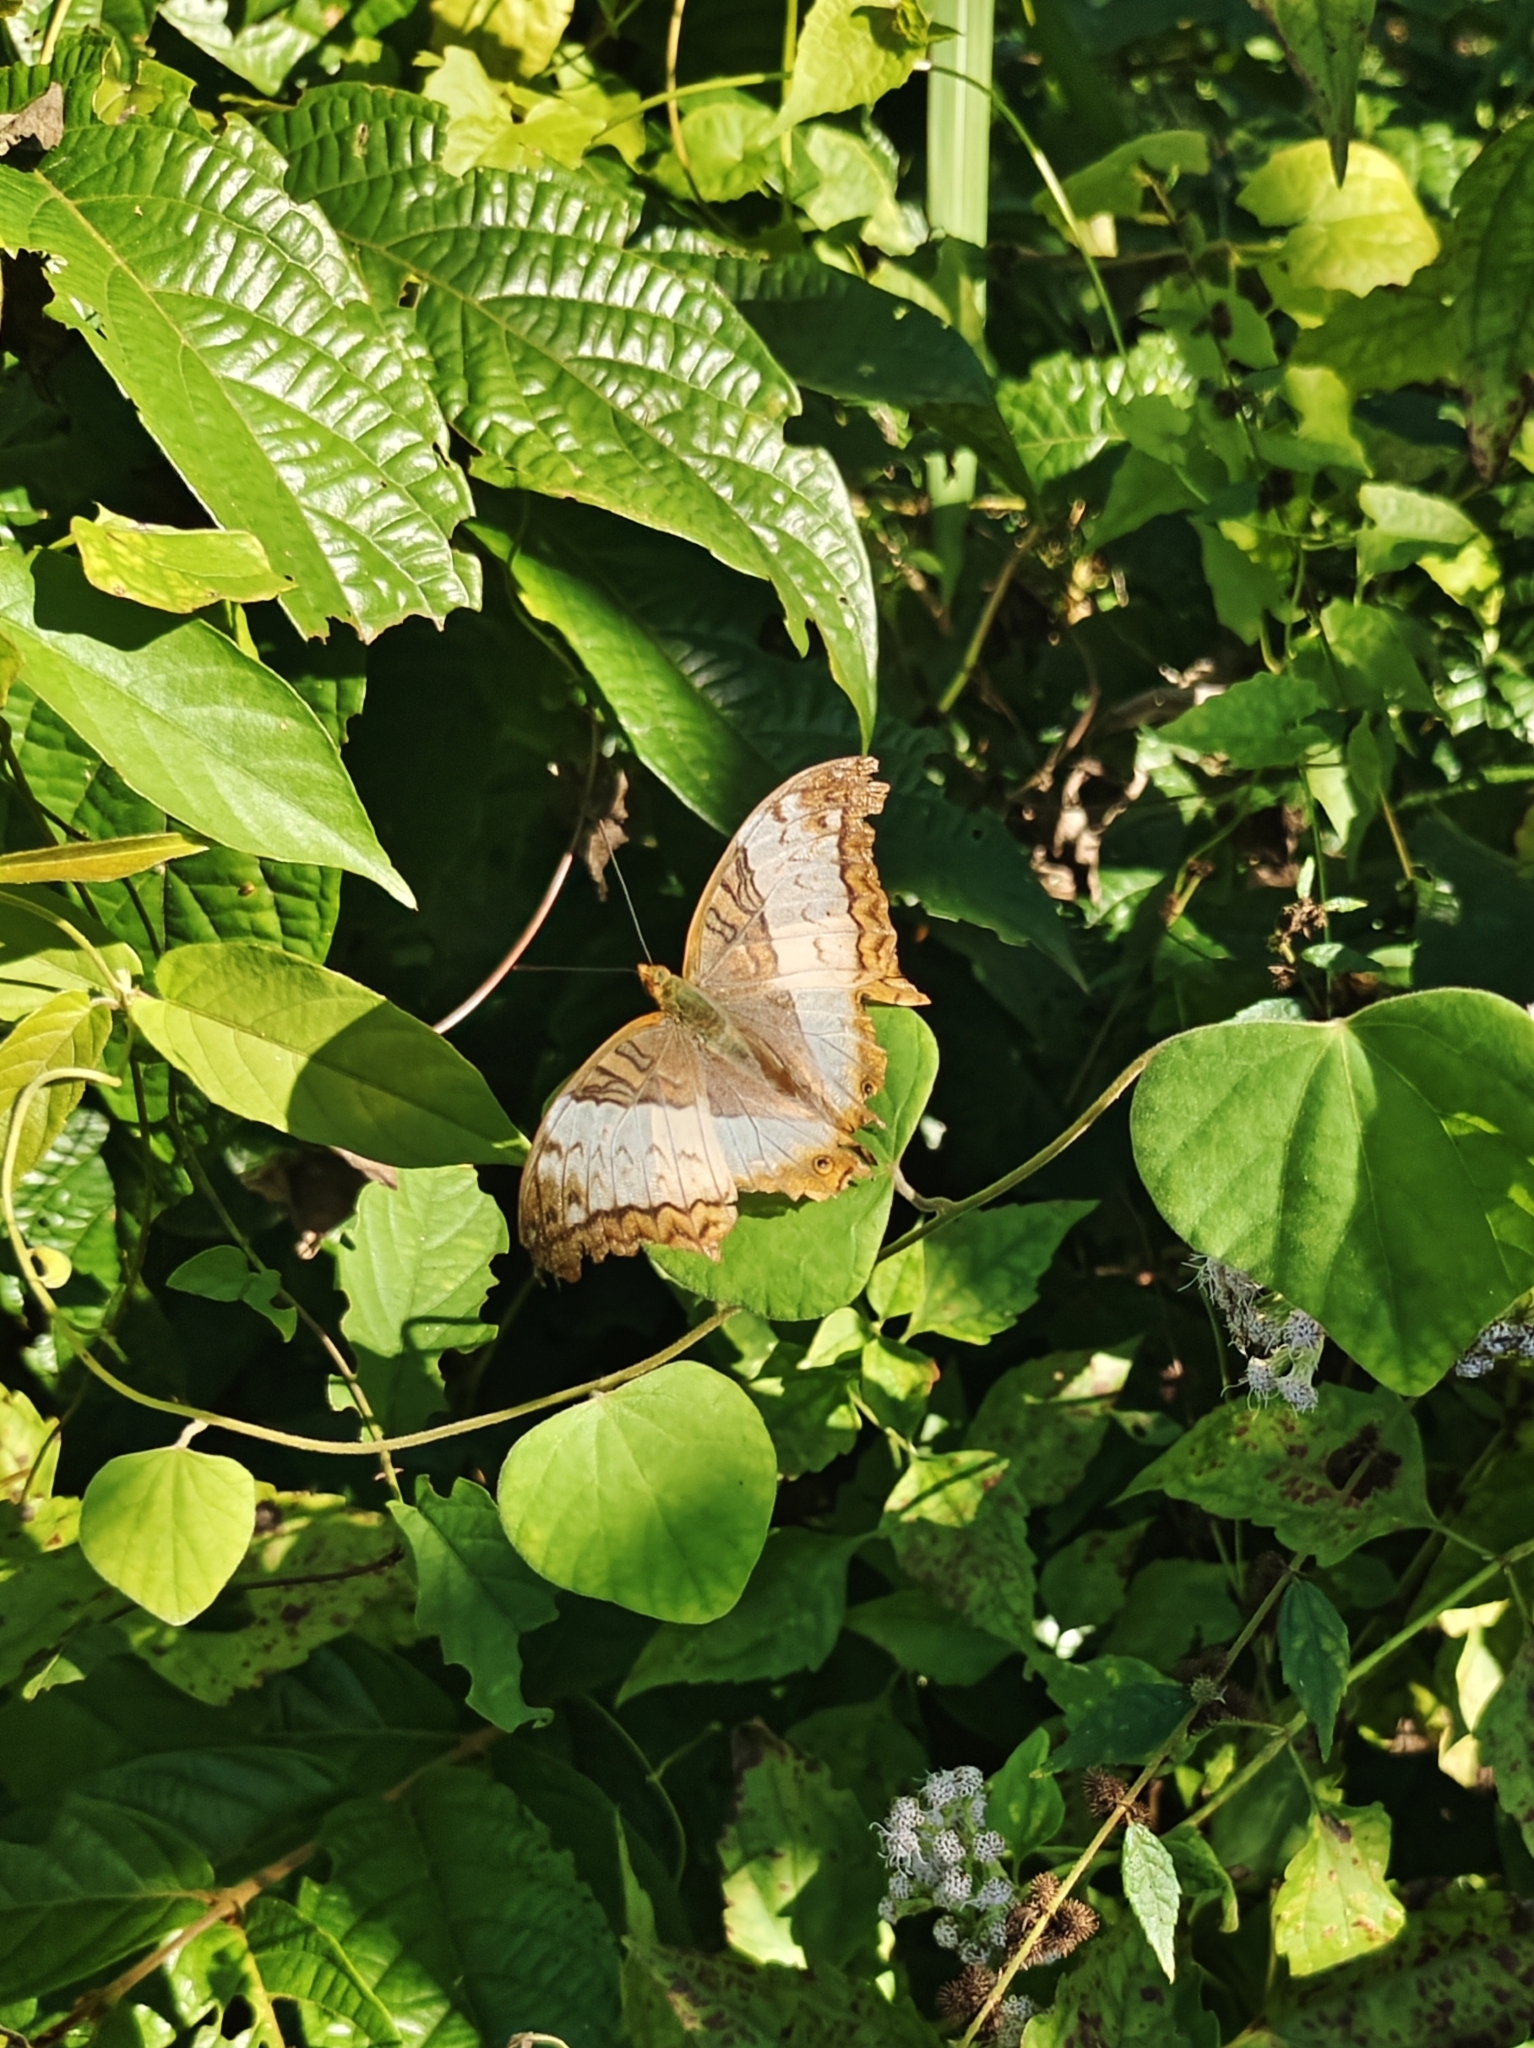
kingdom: Animalia
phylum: Arthropoda
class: Insecta
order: Lepidoptera
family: Nymphalidae
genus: Vindula
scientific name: Vindula erota
